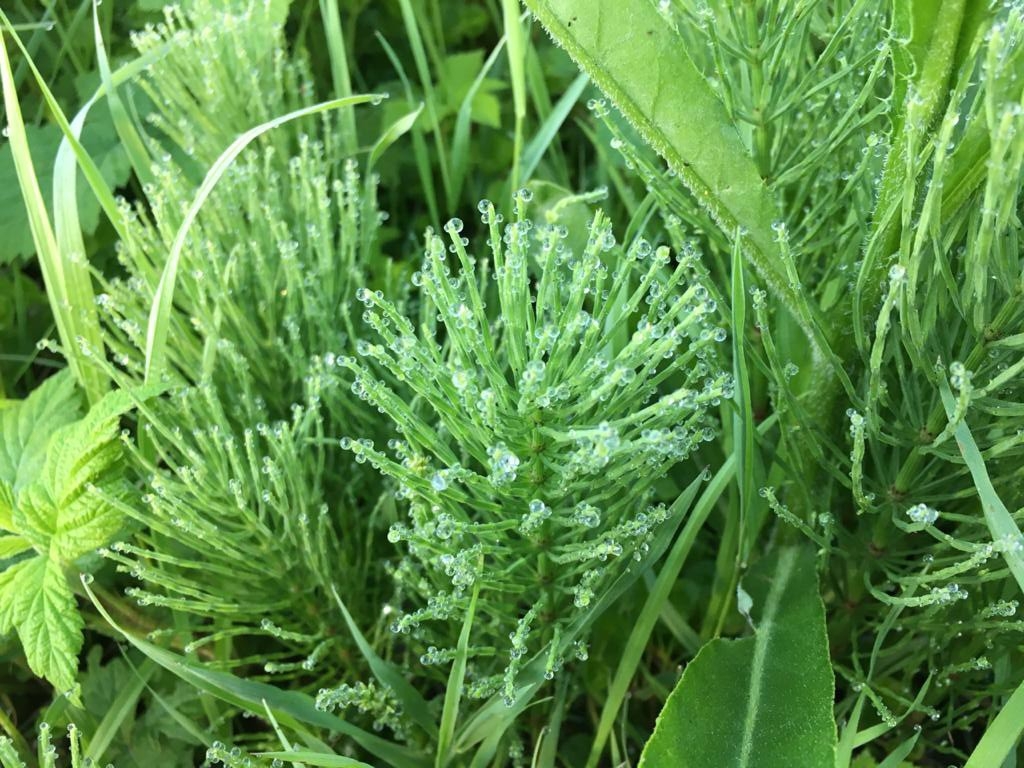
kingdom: Plantae
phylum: Tracheophyta
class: Polypodiopsida
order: Equisetales
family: Equisetaceae
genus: Equisetum
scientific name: Equisetum arvense
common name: Field horsetail
